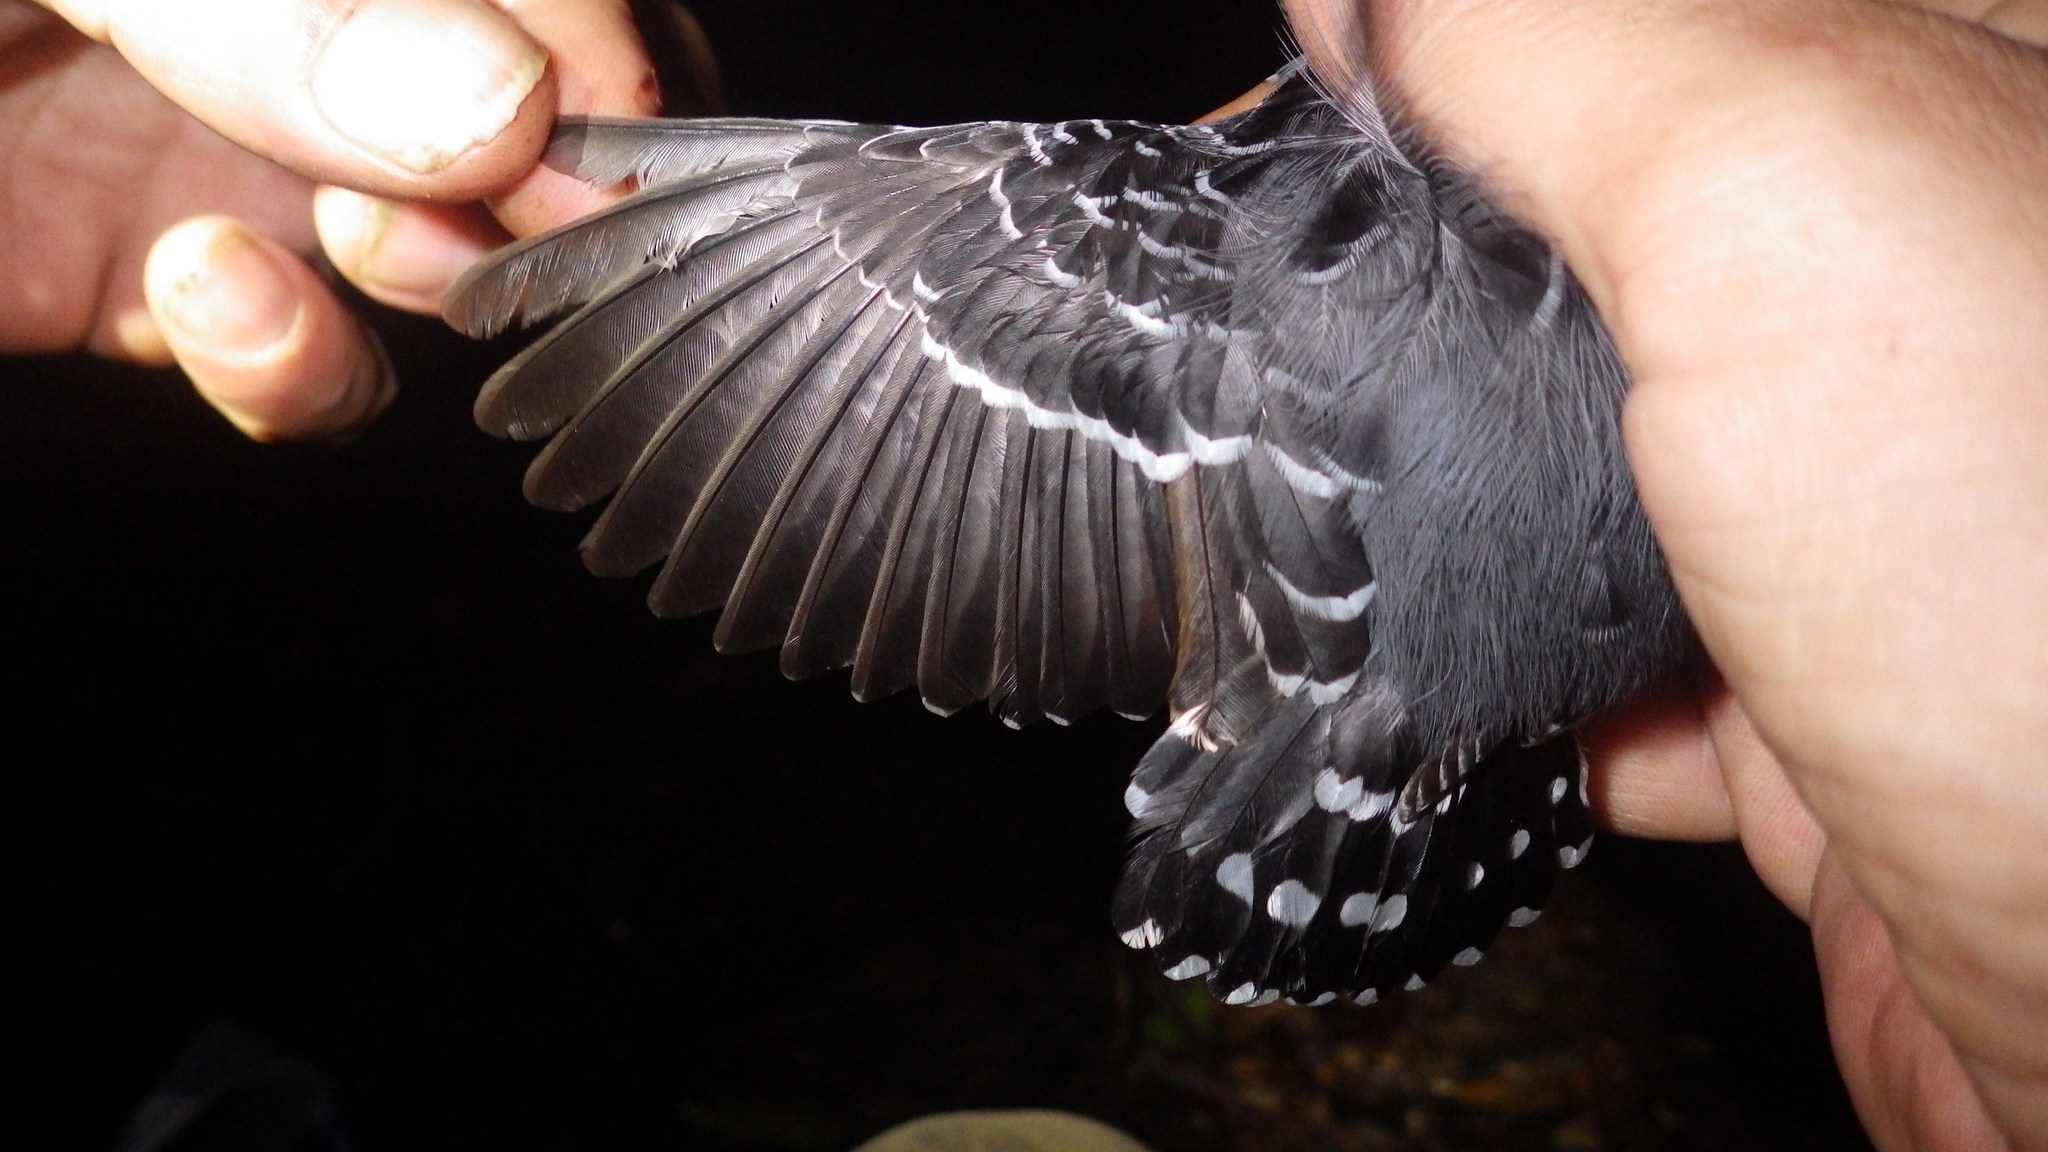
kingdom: Animalia
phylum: Chordata
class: Aves
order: Piciformes
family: Bucconidae
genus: Malacoptila
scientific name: Malacoptila fusca
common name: White-chested puffbird
